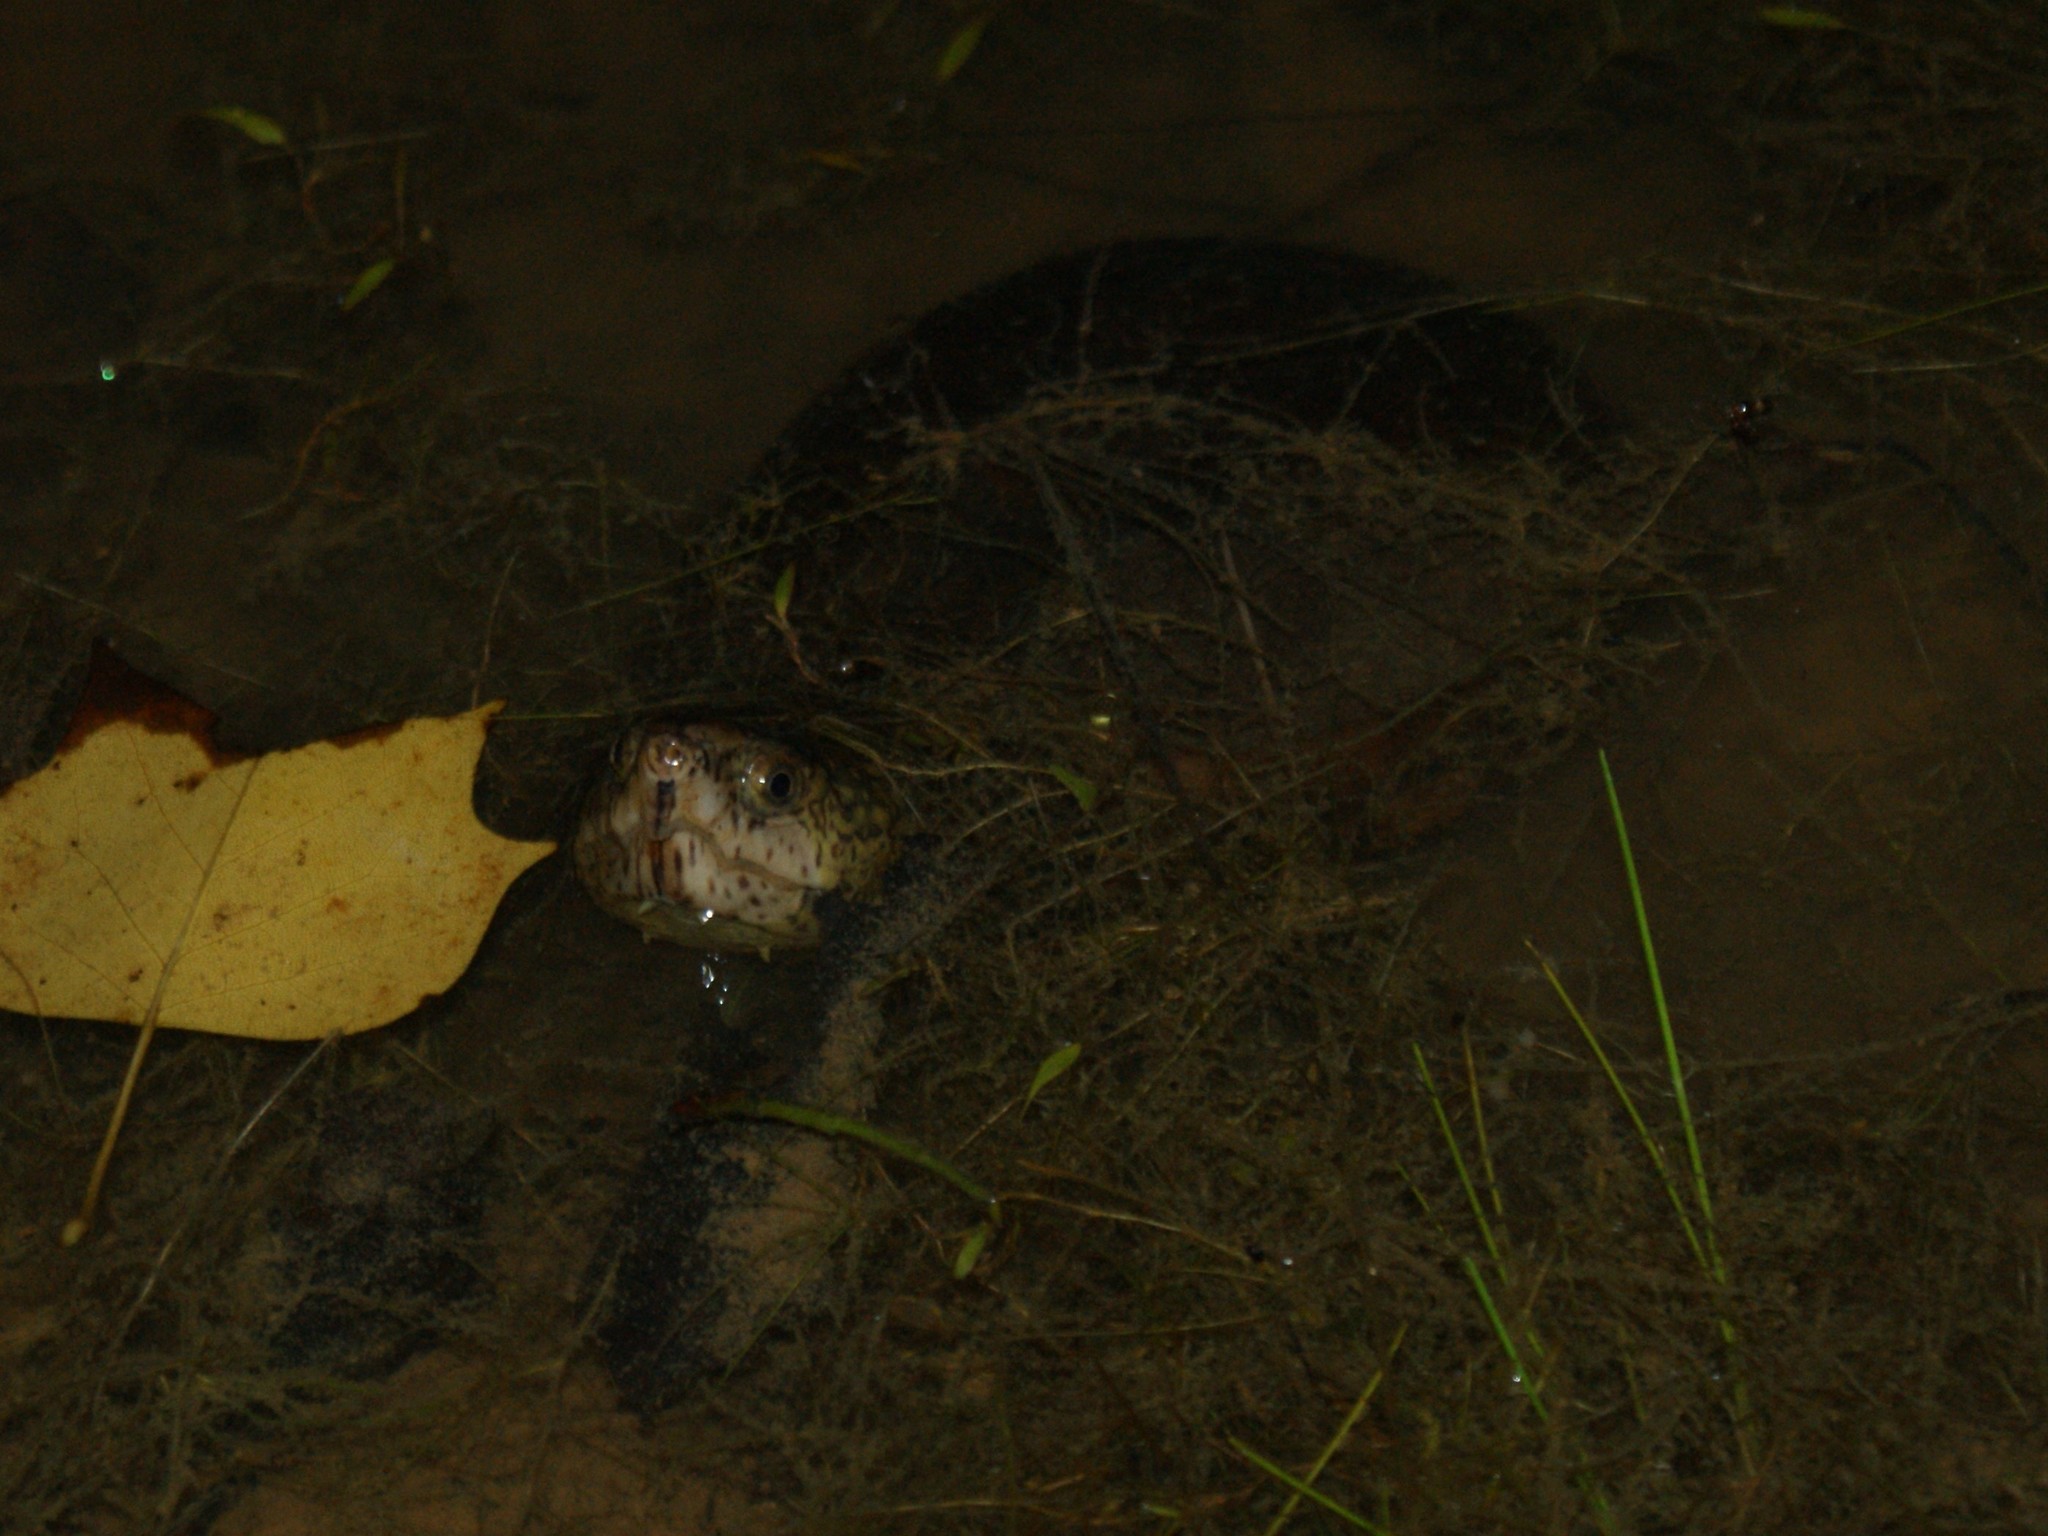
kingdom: Animalia
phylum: Chordata
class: Testudines
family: Kinosternidae
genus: Kinosternon
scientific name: Kinosternon subrubrum
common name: Eastern mud turtle
